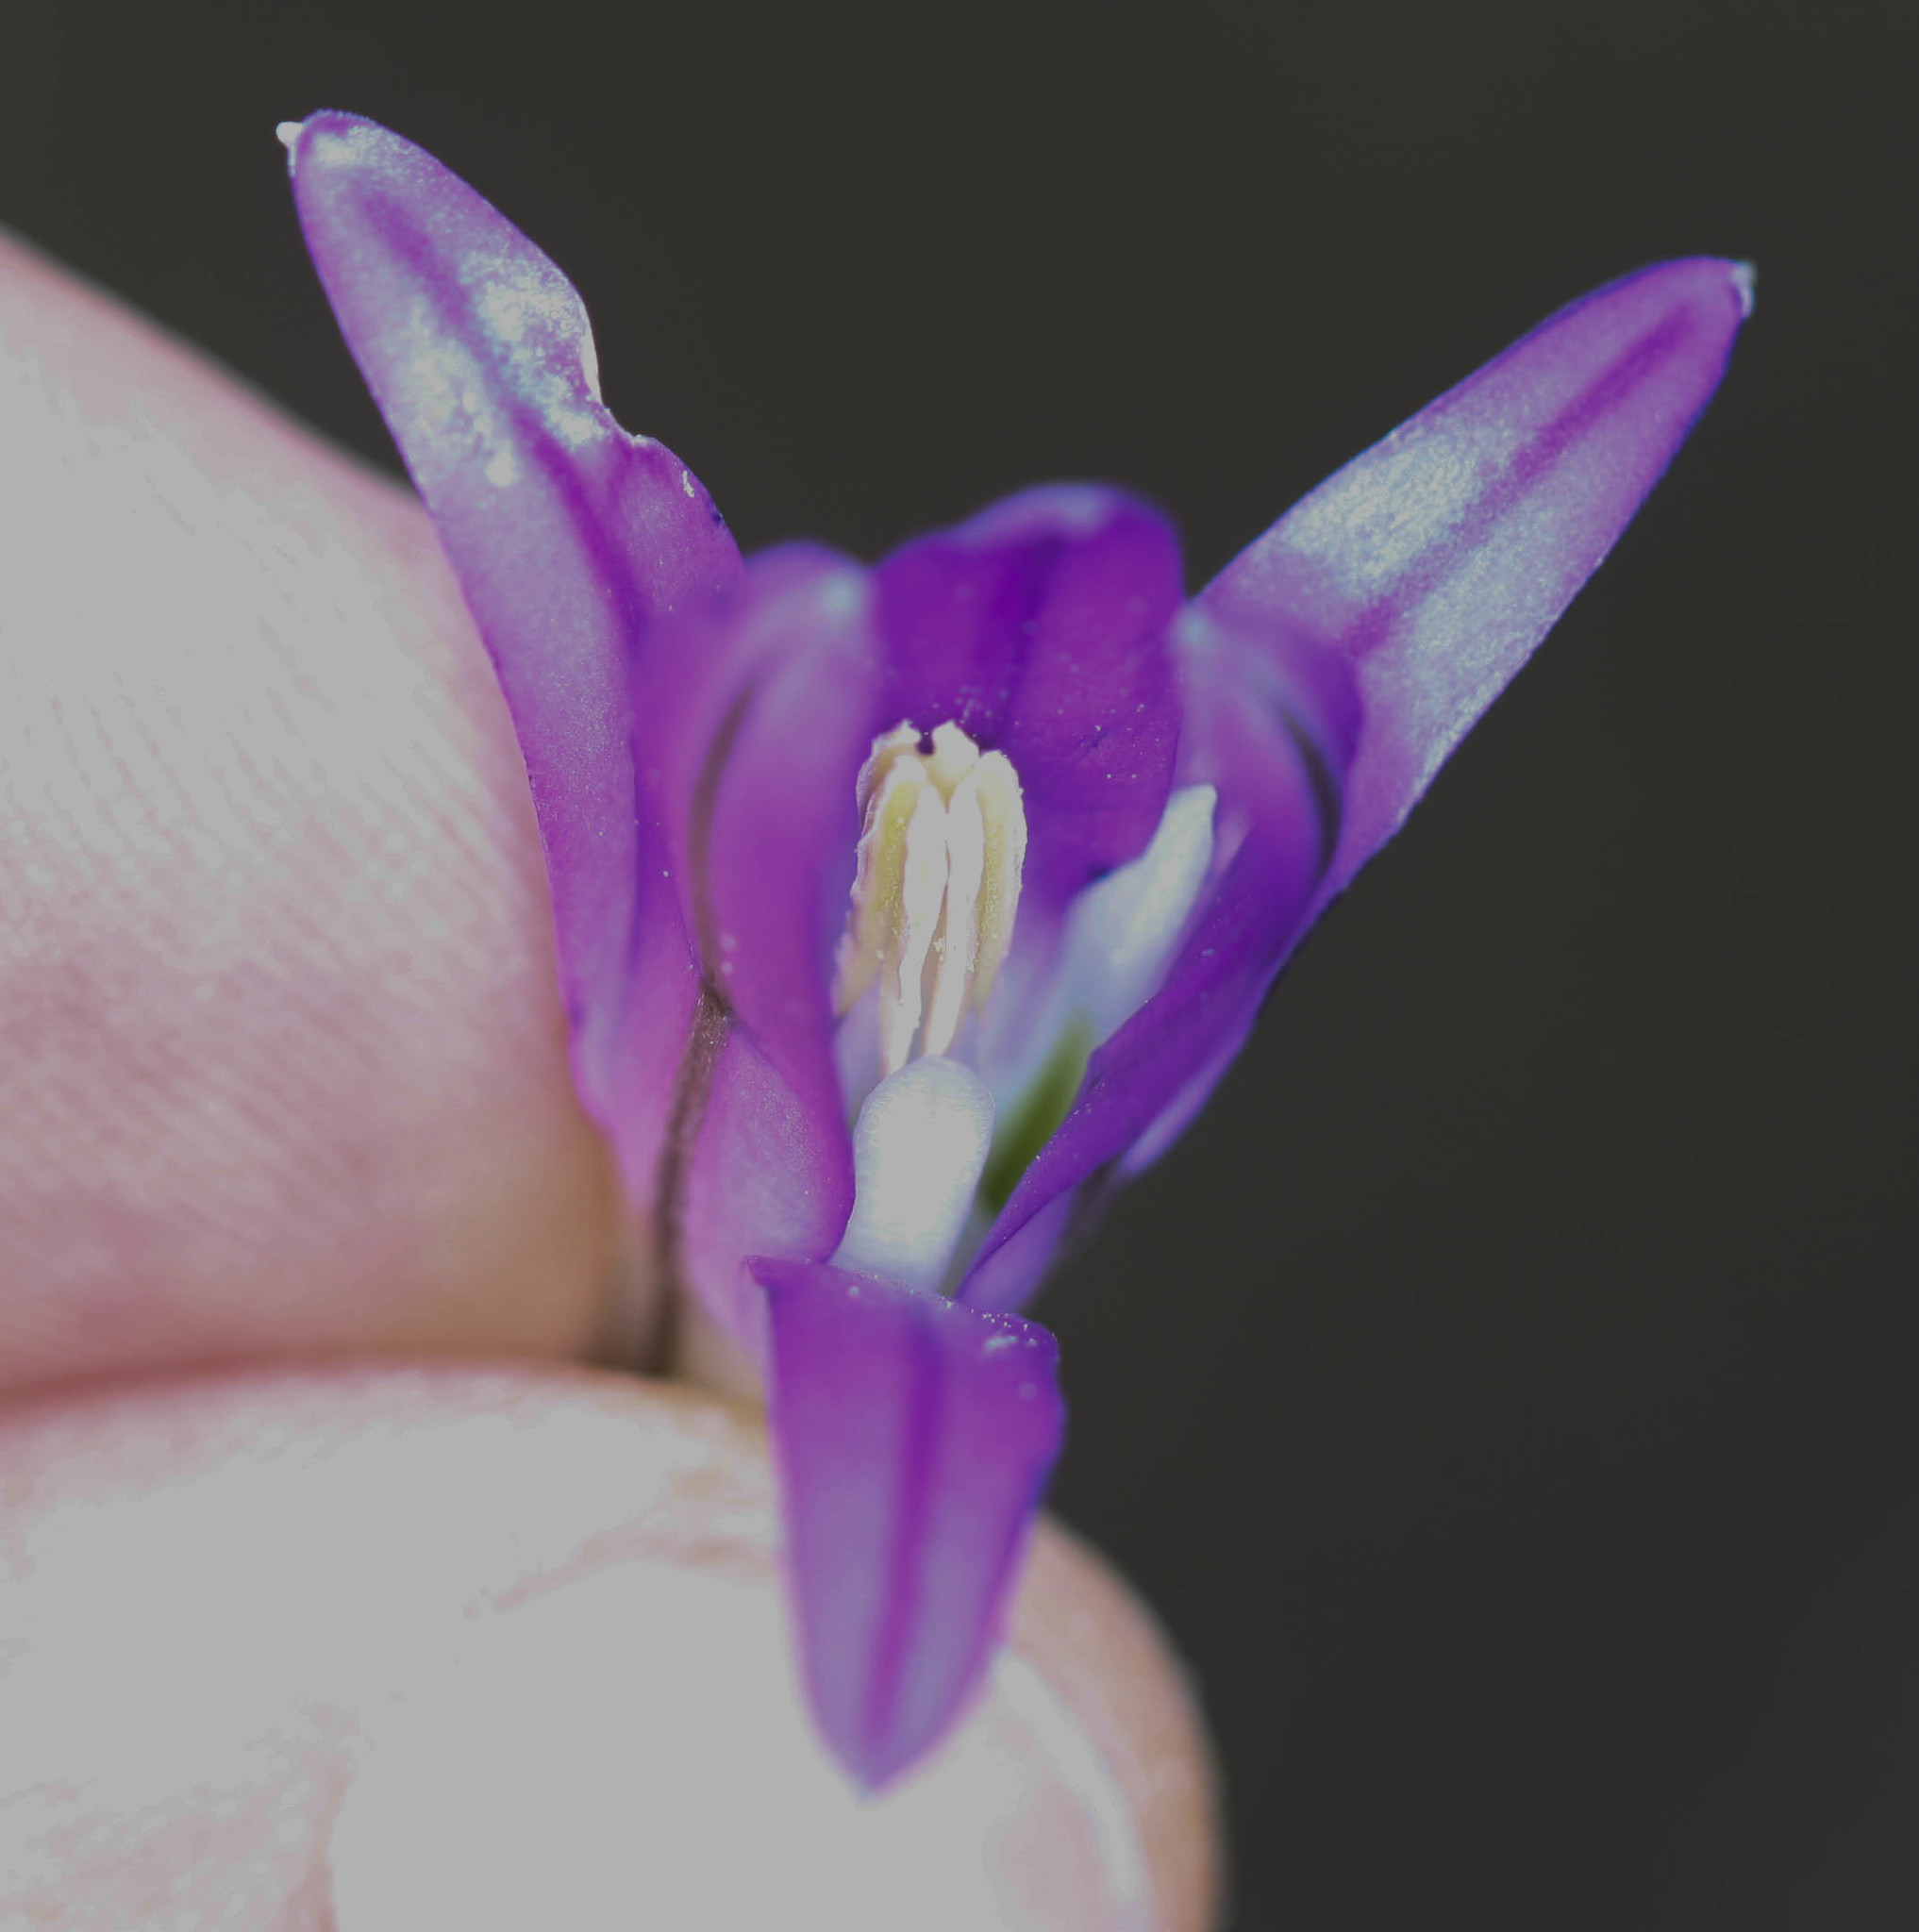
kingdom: Plantae
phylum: Tracheophyta
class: Liliopsida
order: Asparagales
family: Asparagaceae
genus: Brodiaea
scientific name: Brodiaea elegans
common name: Elegant cluster-lily
